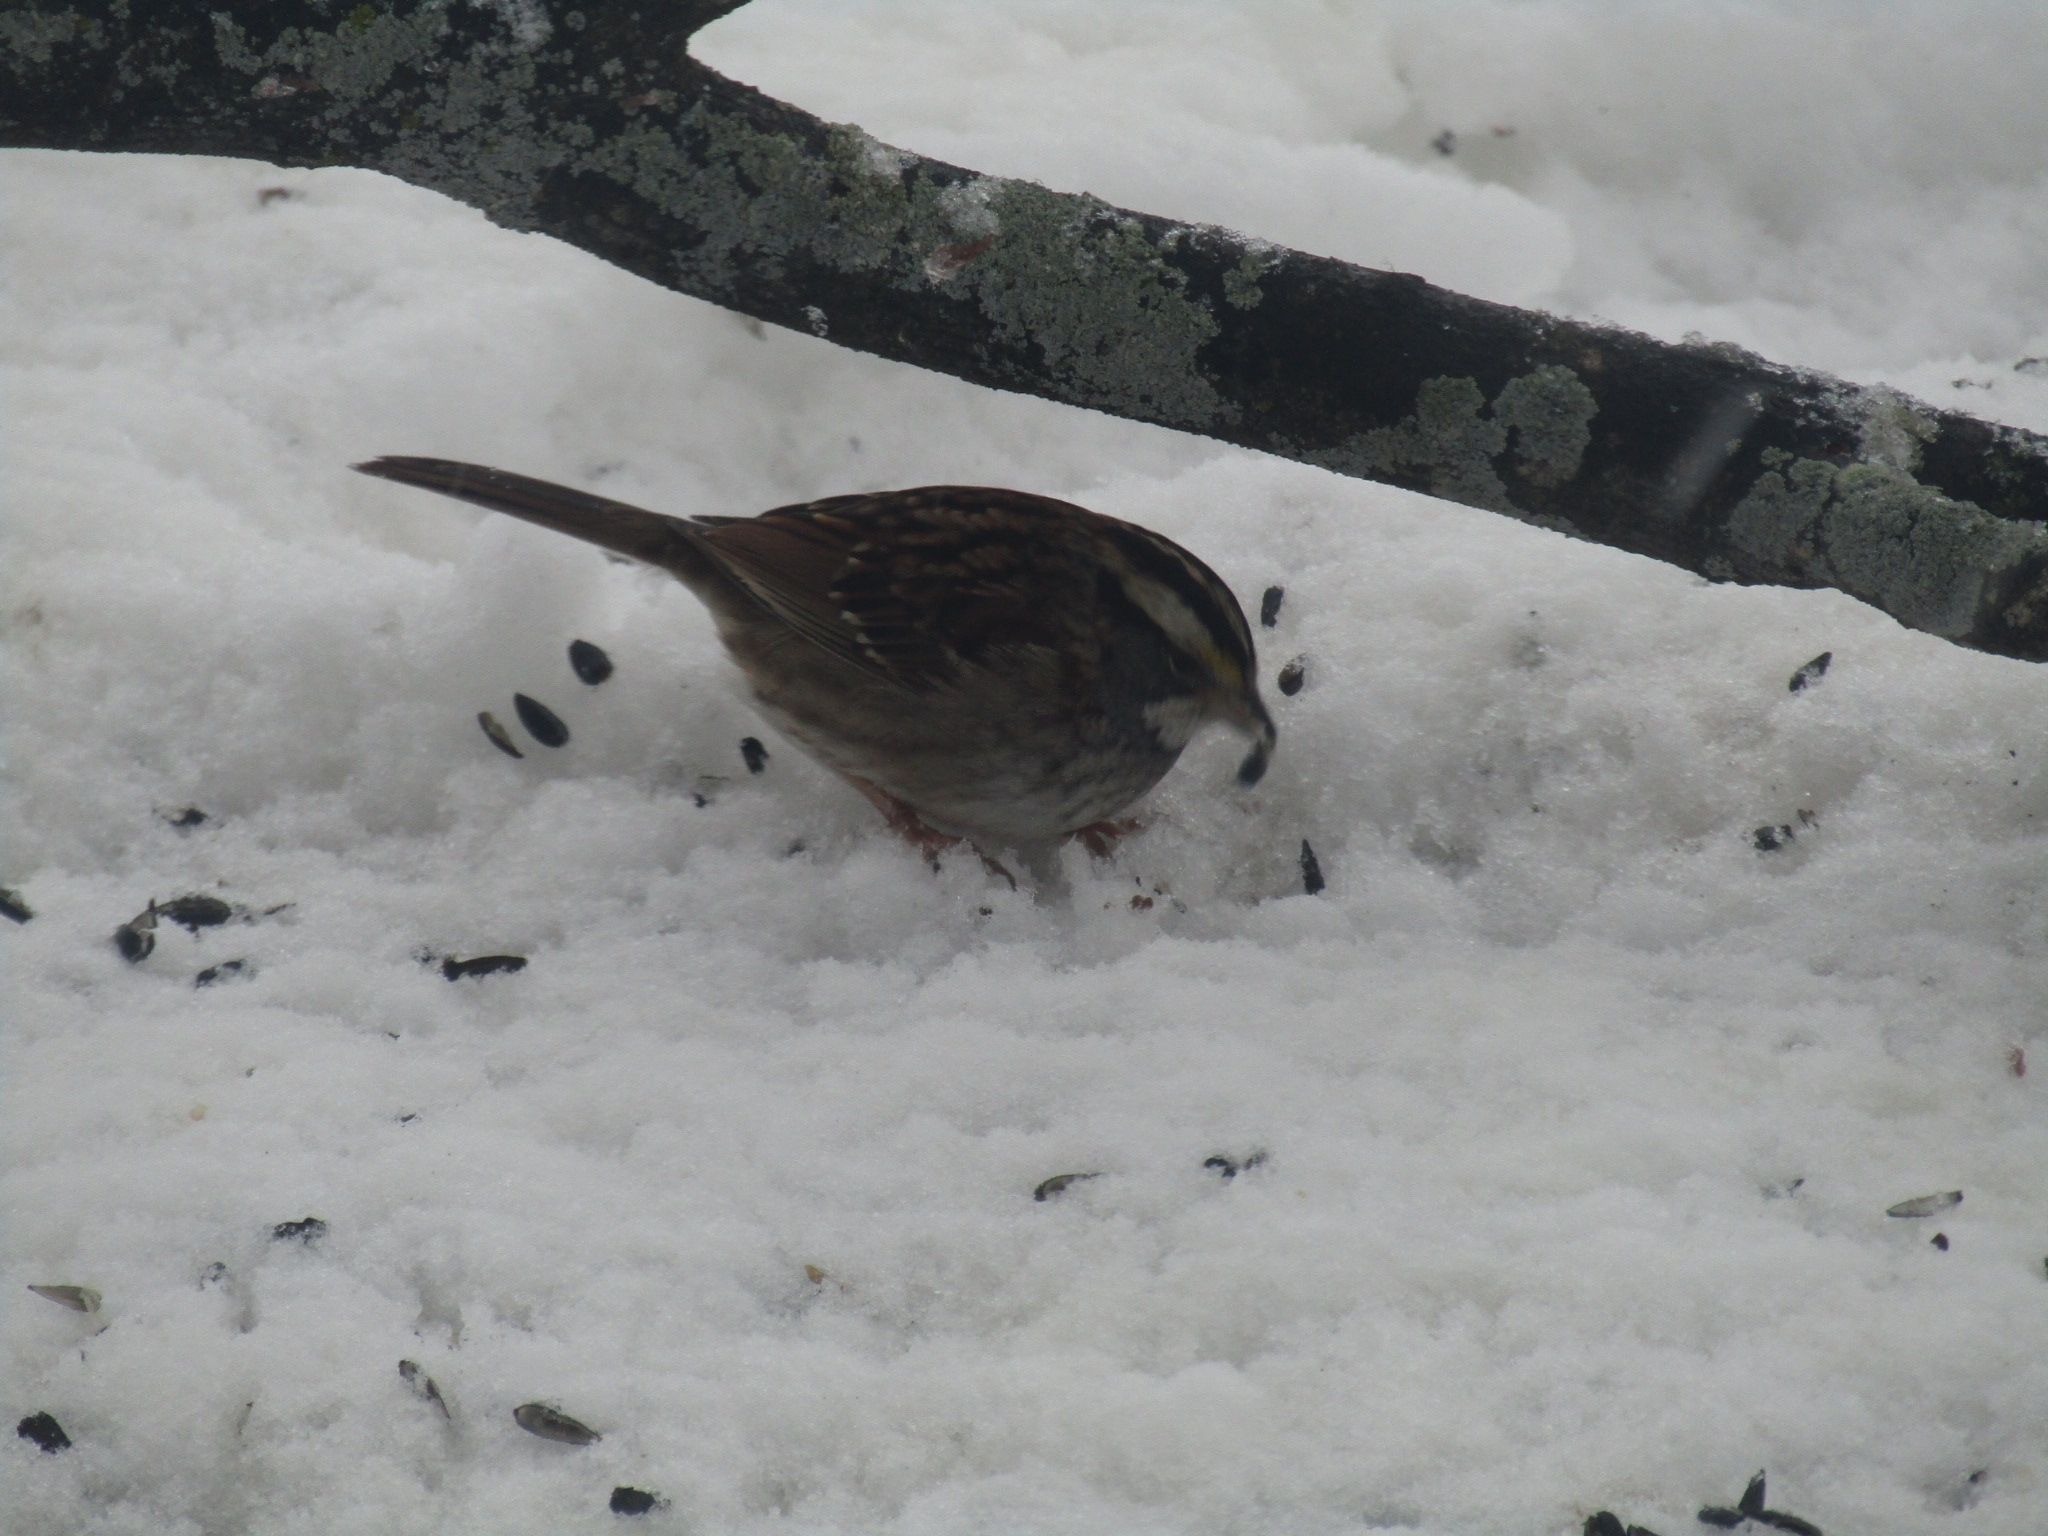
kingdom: Animalia
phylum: Chordata
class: Aves
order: Passeriformes
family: Passerellidae
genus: Zonotrichia
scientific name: Zonotrichia albicollis
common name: White-throated sparrow
